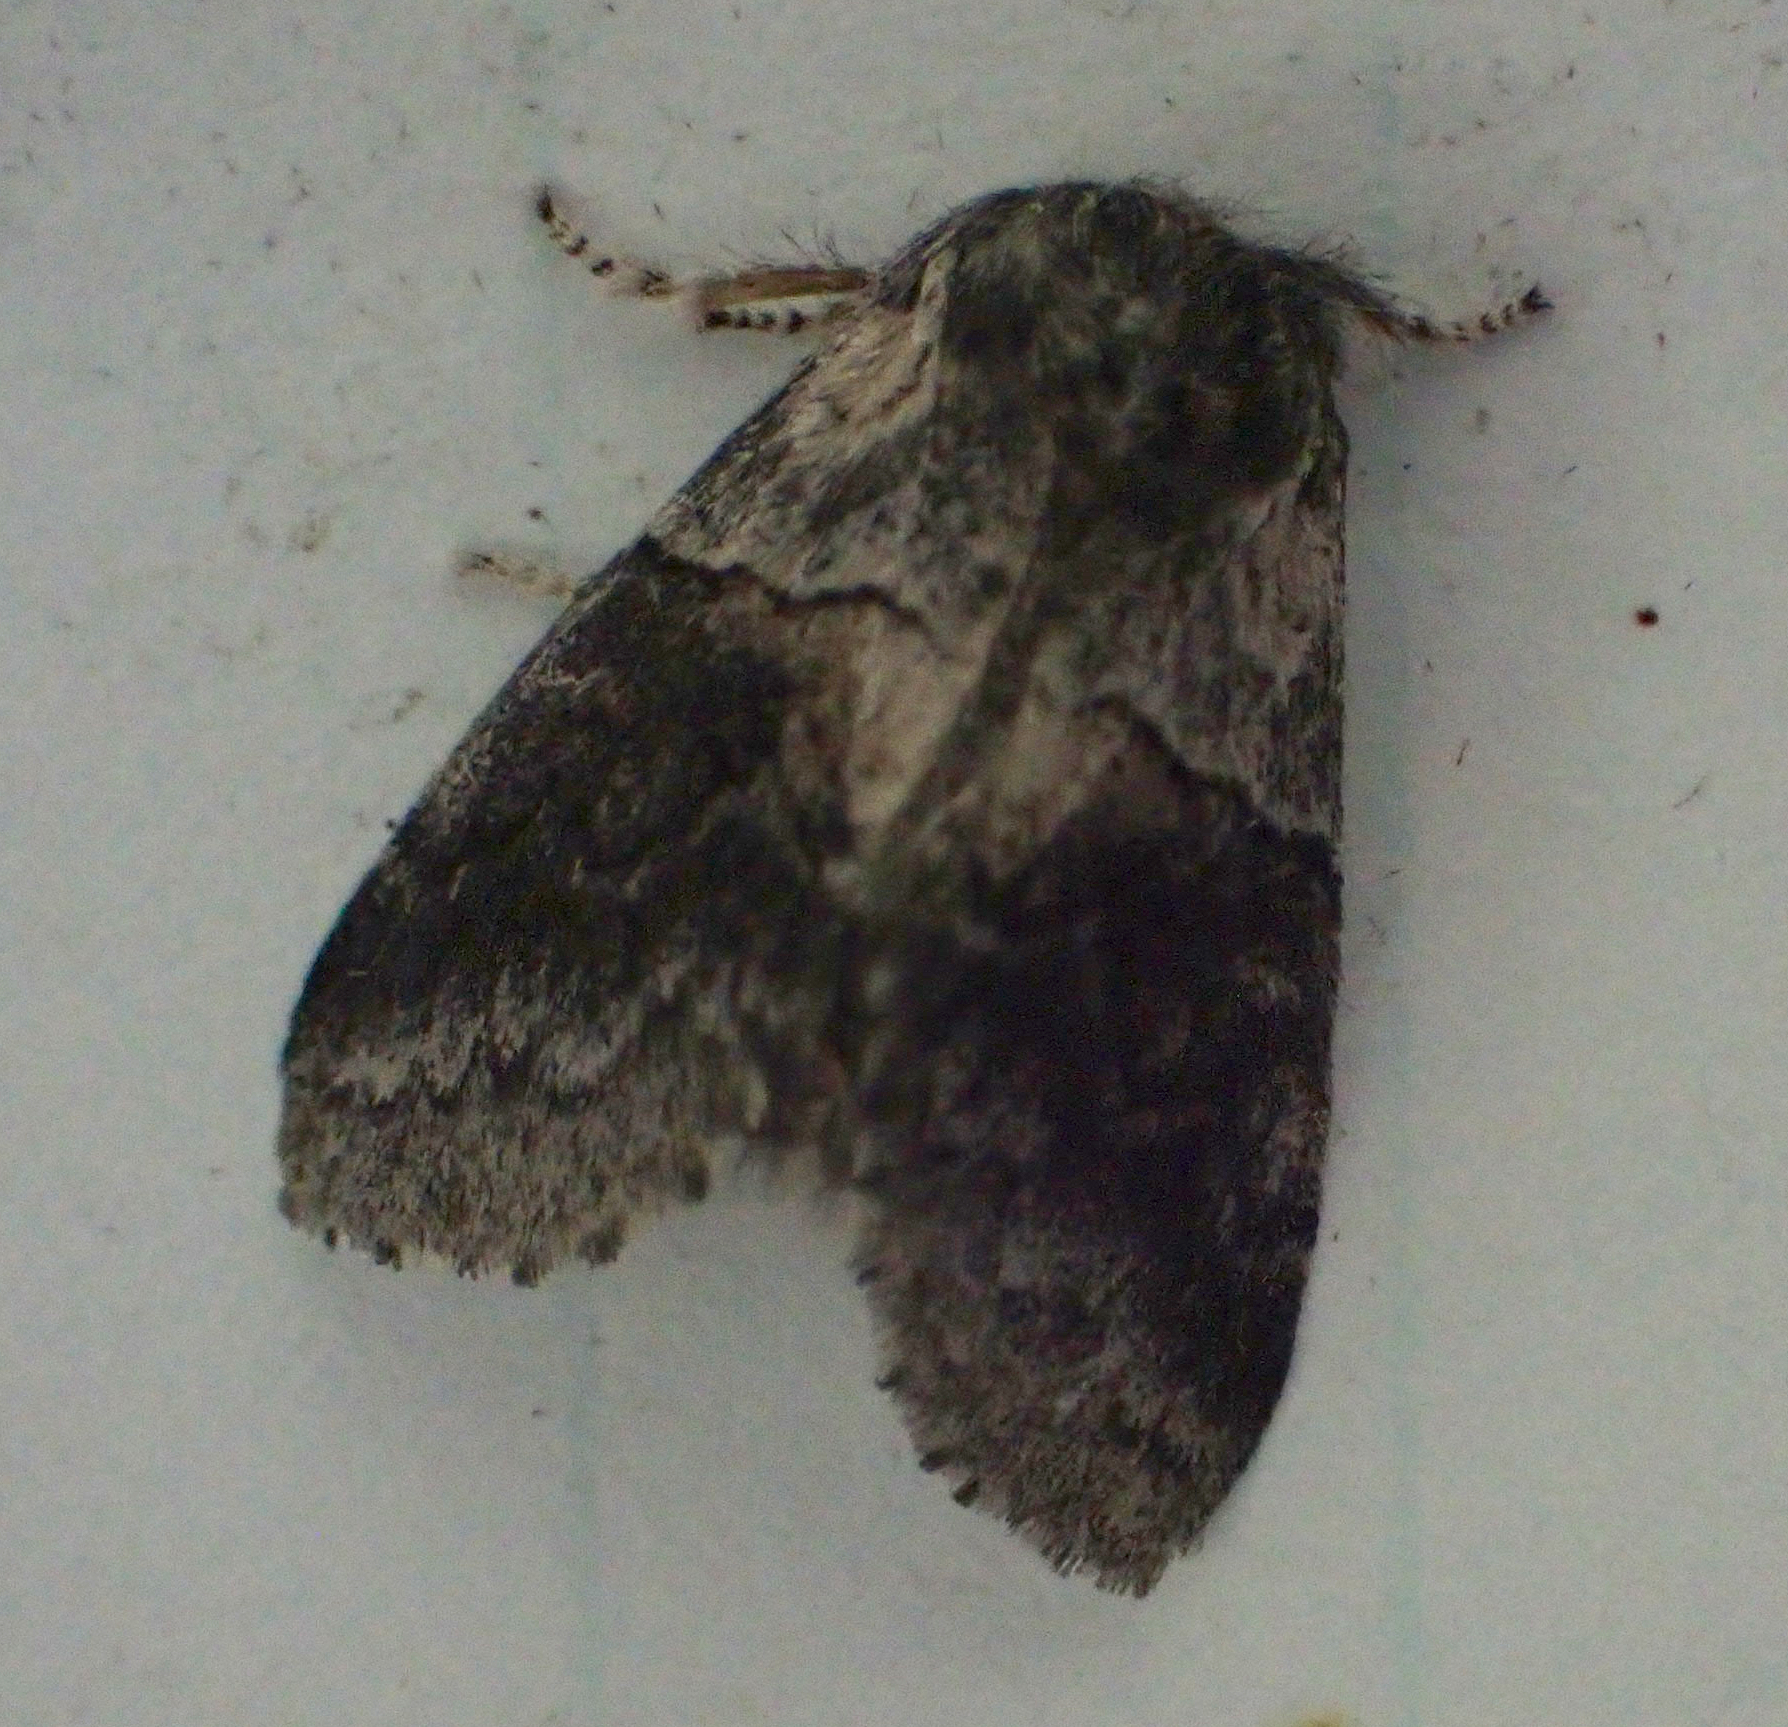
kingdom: Animalia
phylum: Arthropoda
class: Insecta
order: Lepidoptera
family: Notodontidae
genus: Gluphisia
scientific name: Gluphisia septentrionis
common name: Common gluphisia
